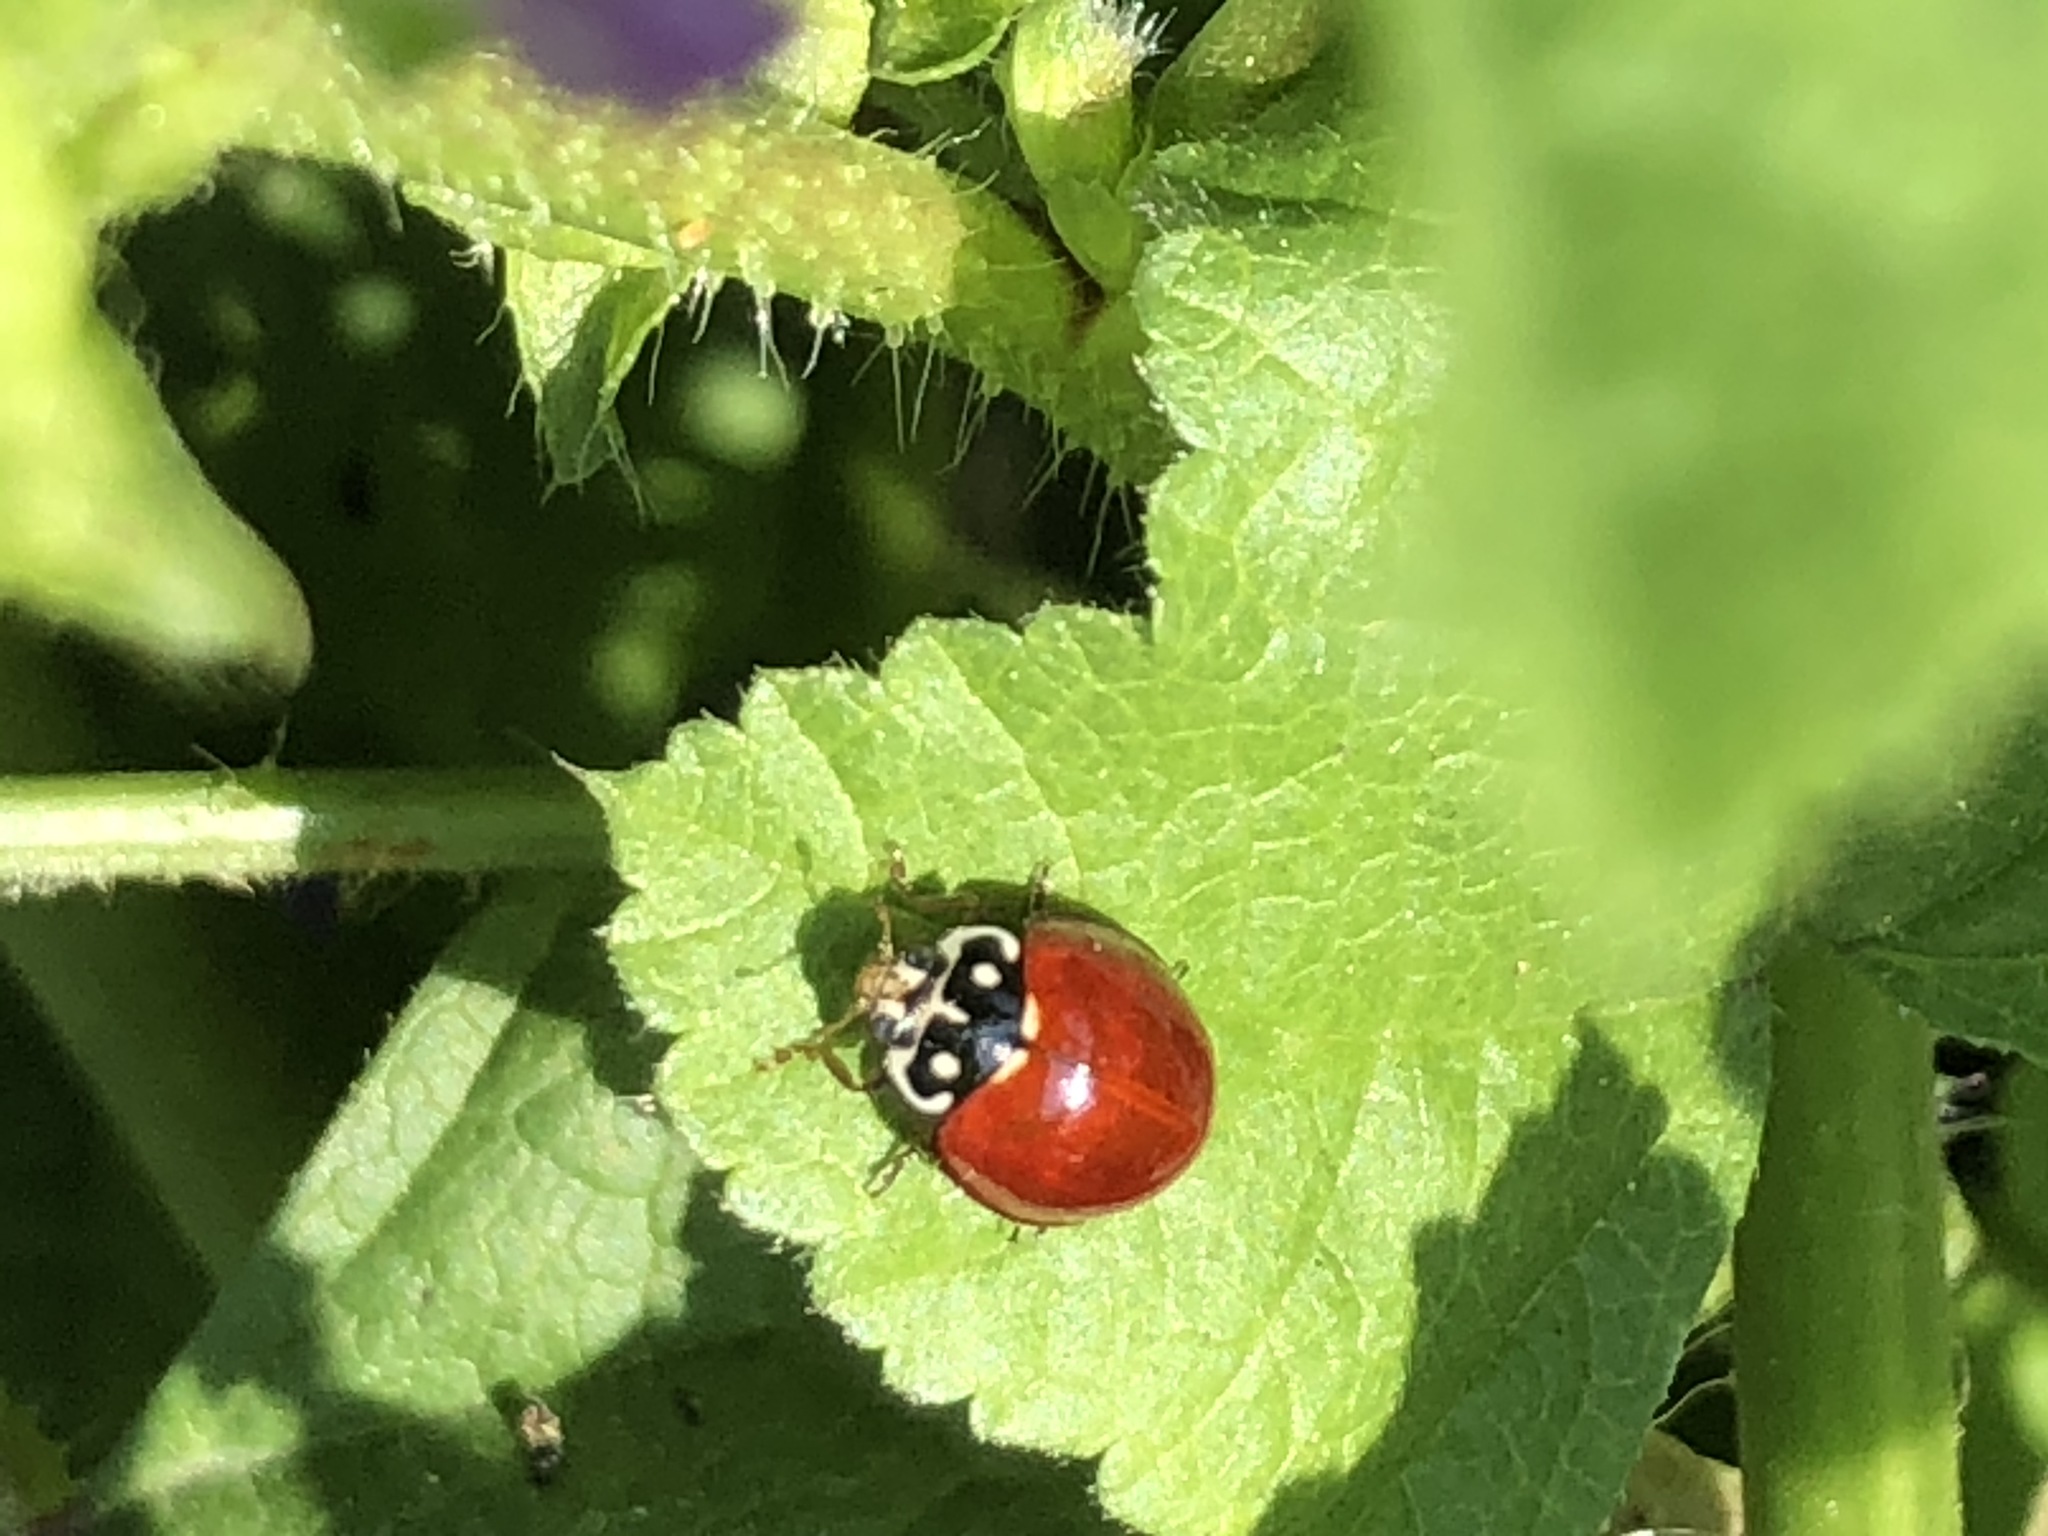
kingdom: Animalia
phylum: Arthropoda
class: Insecta
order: Coleoptera
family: Coccinellidae
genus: Cycloneda
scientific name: Cycloneda sanguinea
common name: Ladybird beetle
